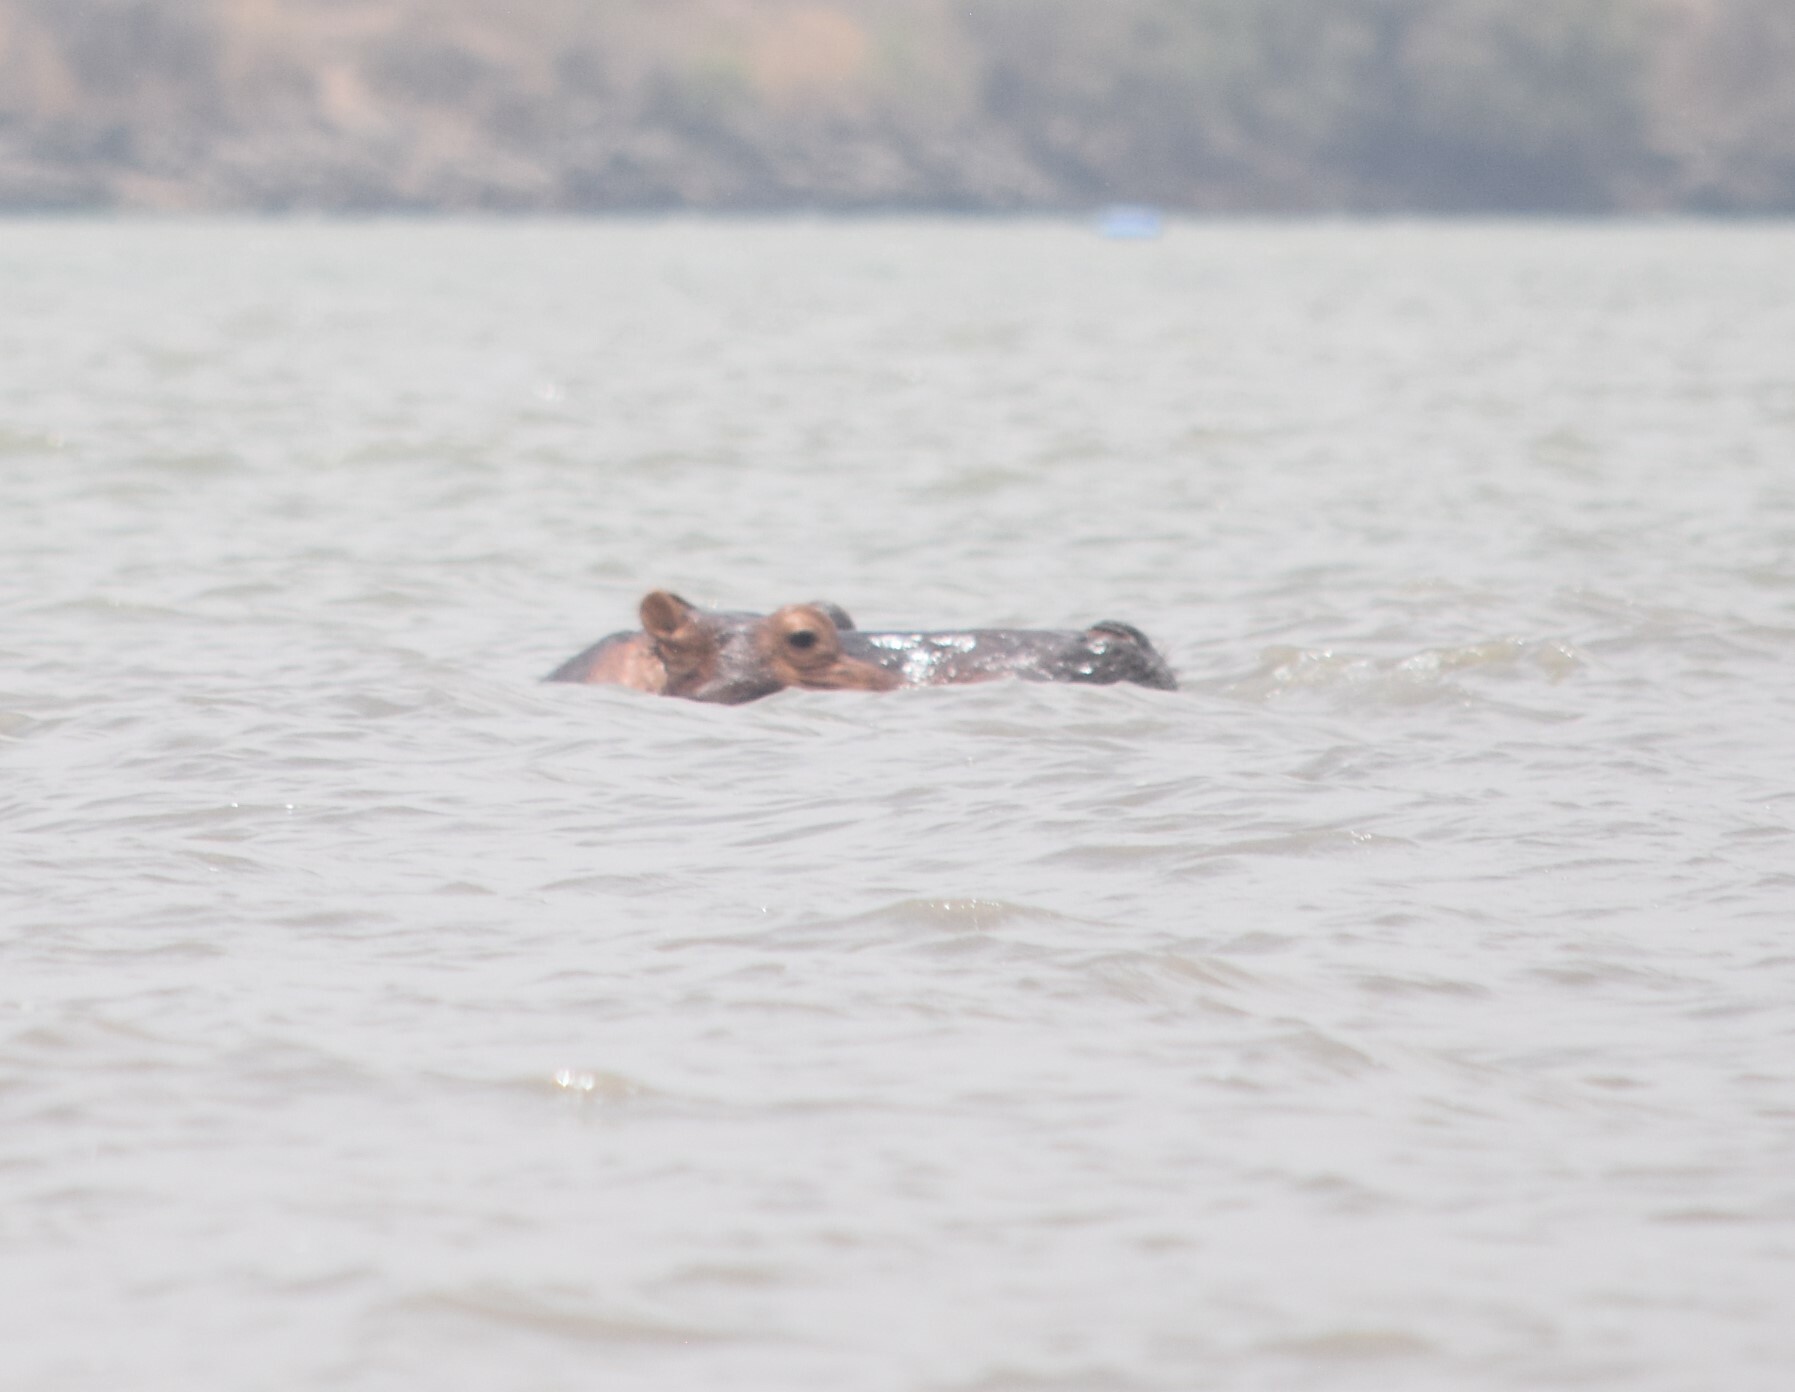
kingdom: Animalia
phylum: Chordata
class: Mammalia
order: Artiodactyla
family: Hippopotamidae
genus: Hippopotamus
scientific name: Hippopotamus amphibius
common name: Common hippopotamus
